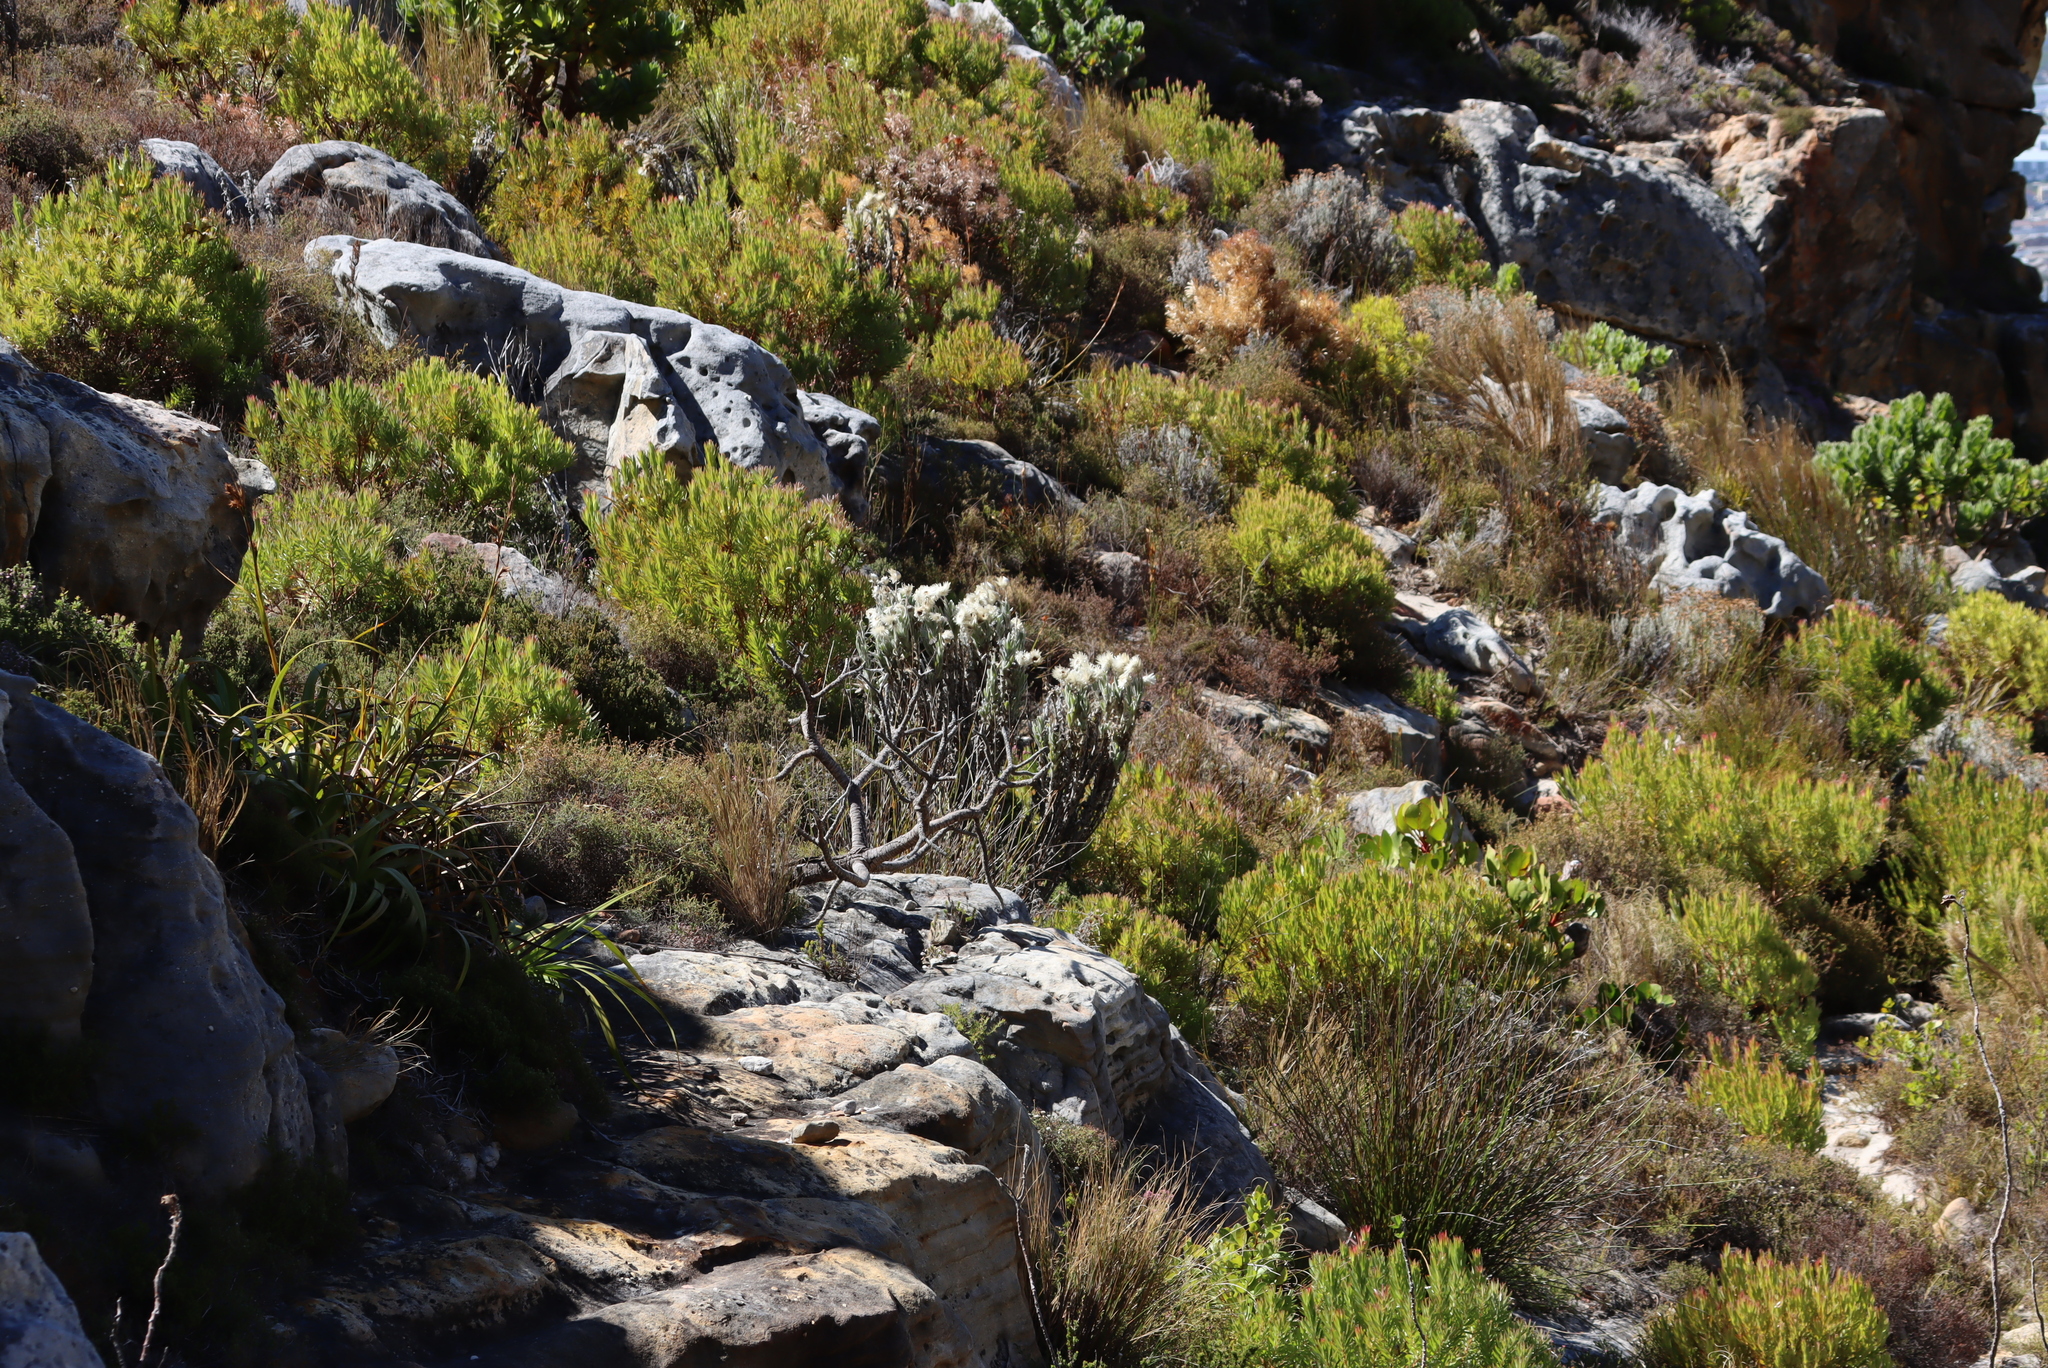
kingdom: Plantae
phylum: Tracheophyta
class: Magnoliopsida
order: Asterales
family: Asteraceae
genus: Syncarpha
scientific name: Syncarpha vestita
